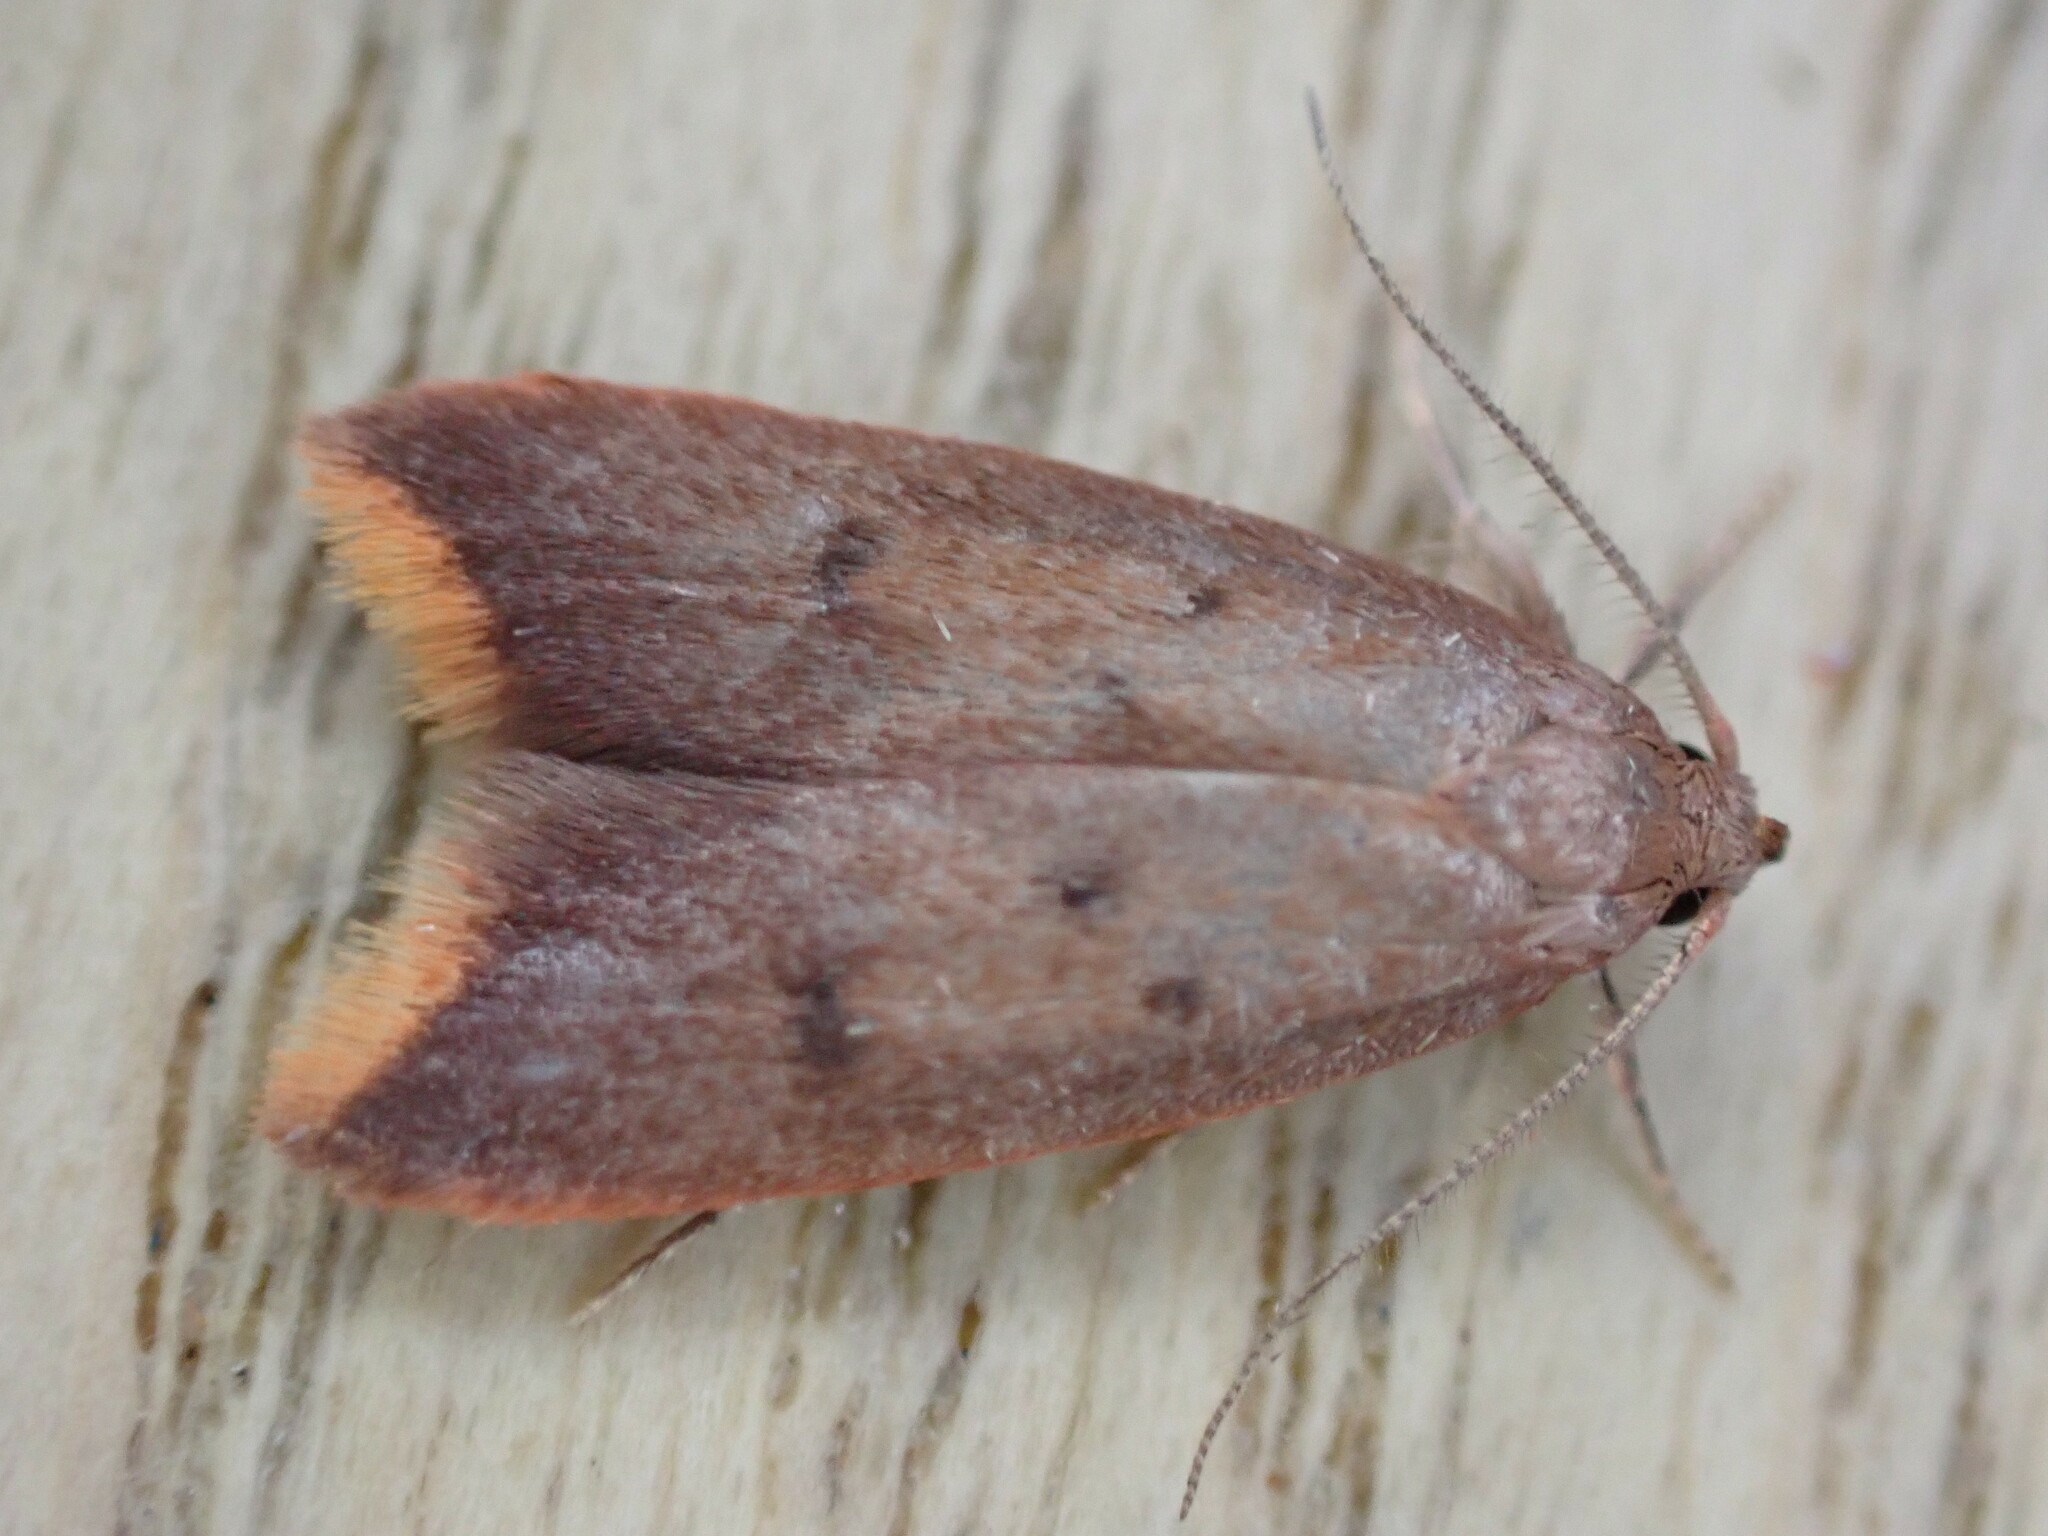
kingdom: Animalia
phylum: Arthropoda
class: Insecta
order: Lepidoptera
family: Oecophoridae
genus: Tachystola
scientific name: Tachystola acroxantha
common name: Ruddy streak
